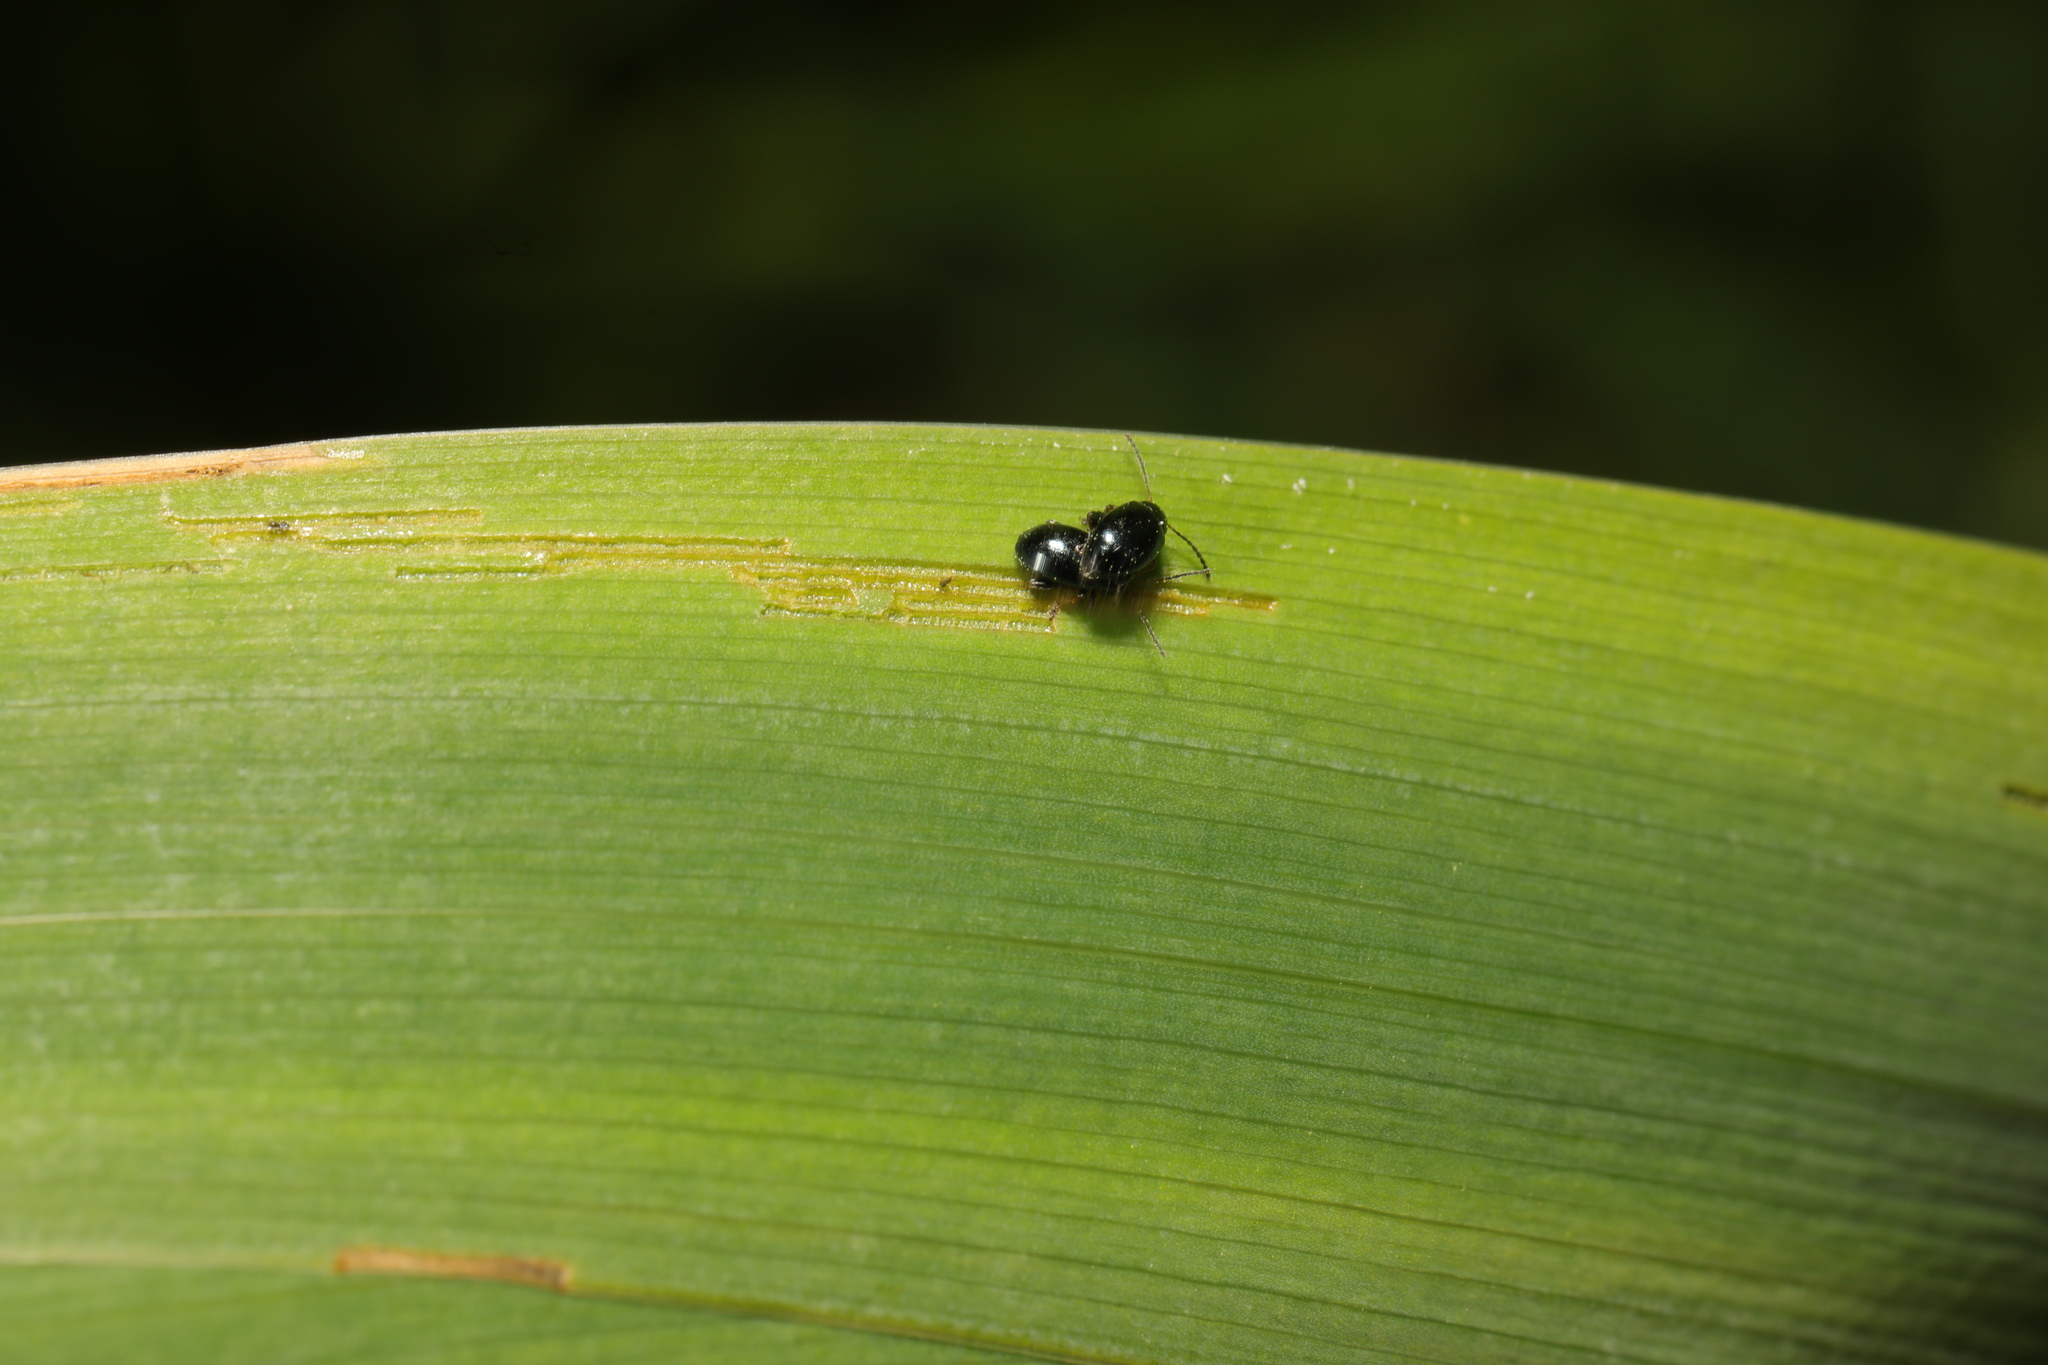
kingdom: Animalia
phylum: Arthropoda
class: Insecta
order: Coleoptera
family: Chrysomelidae
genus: Aphthona
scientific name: Aphthona nonstriata
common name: Iris flea beetle
